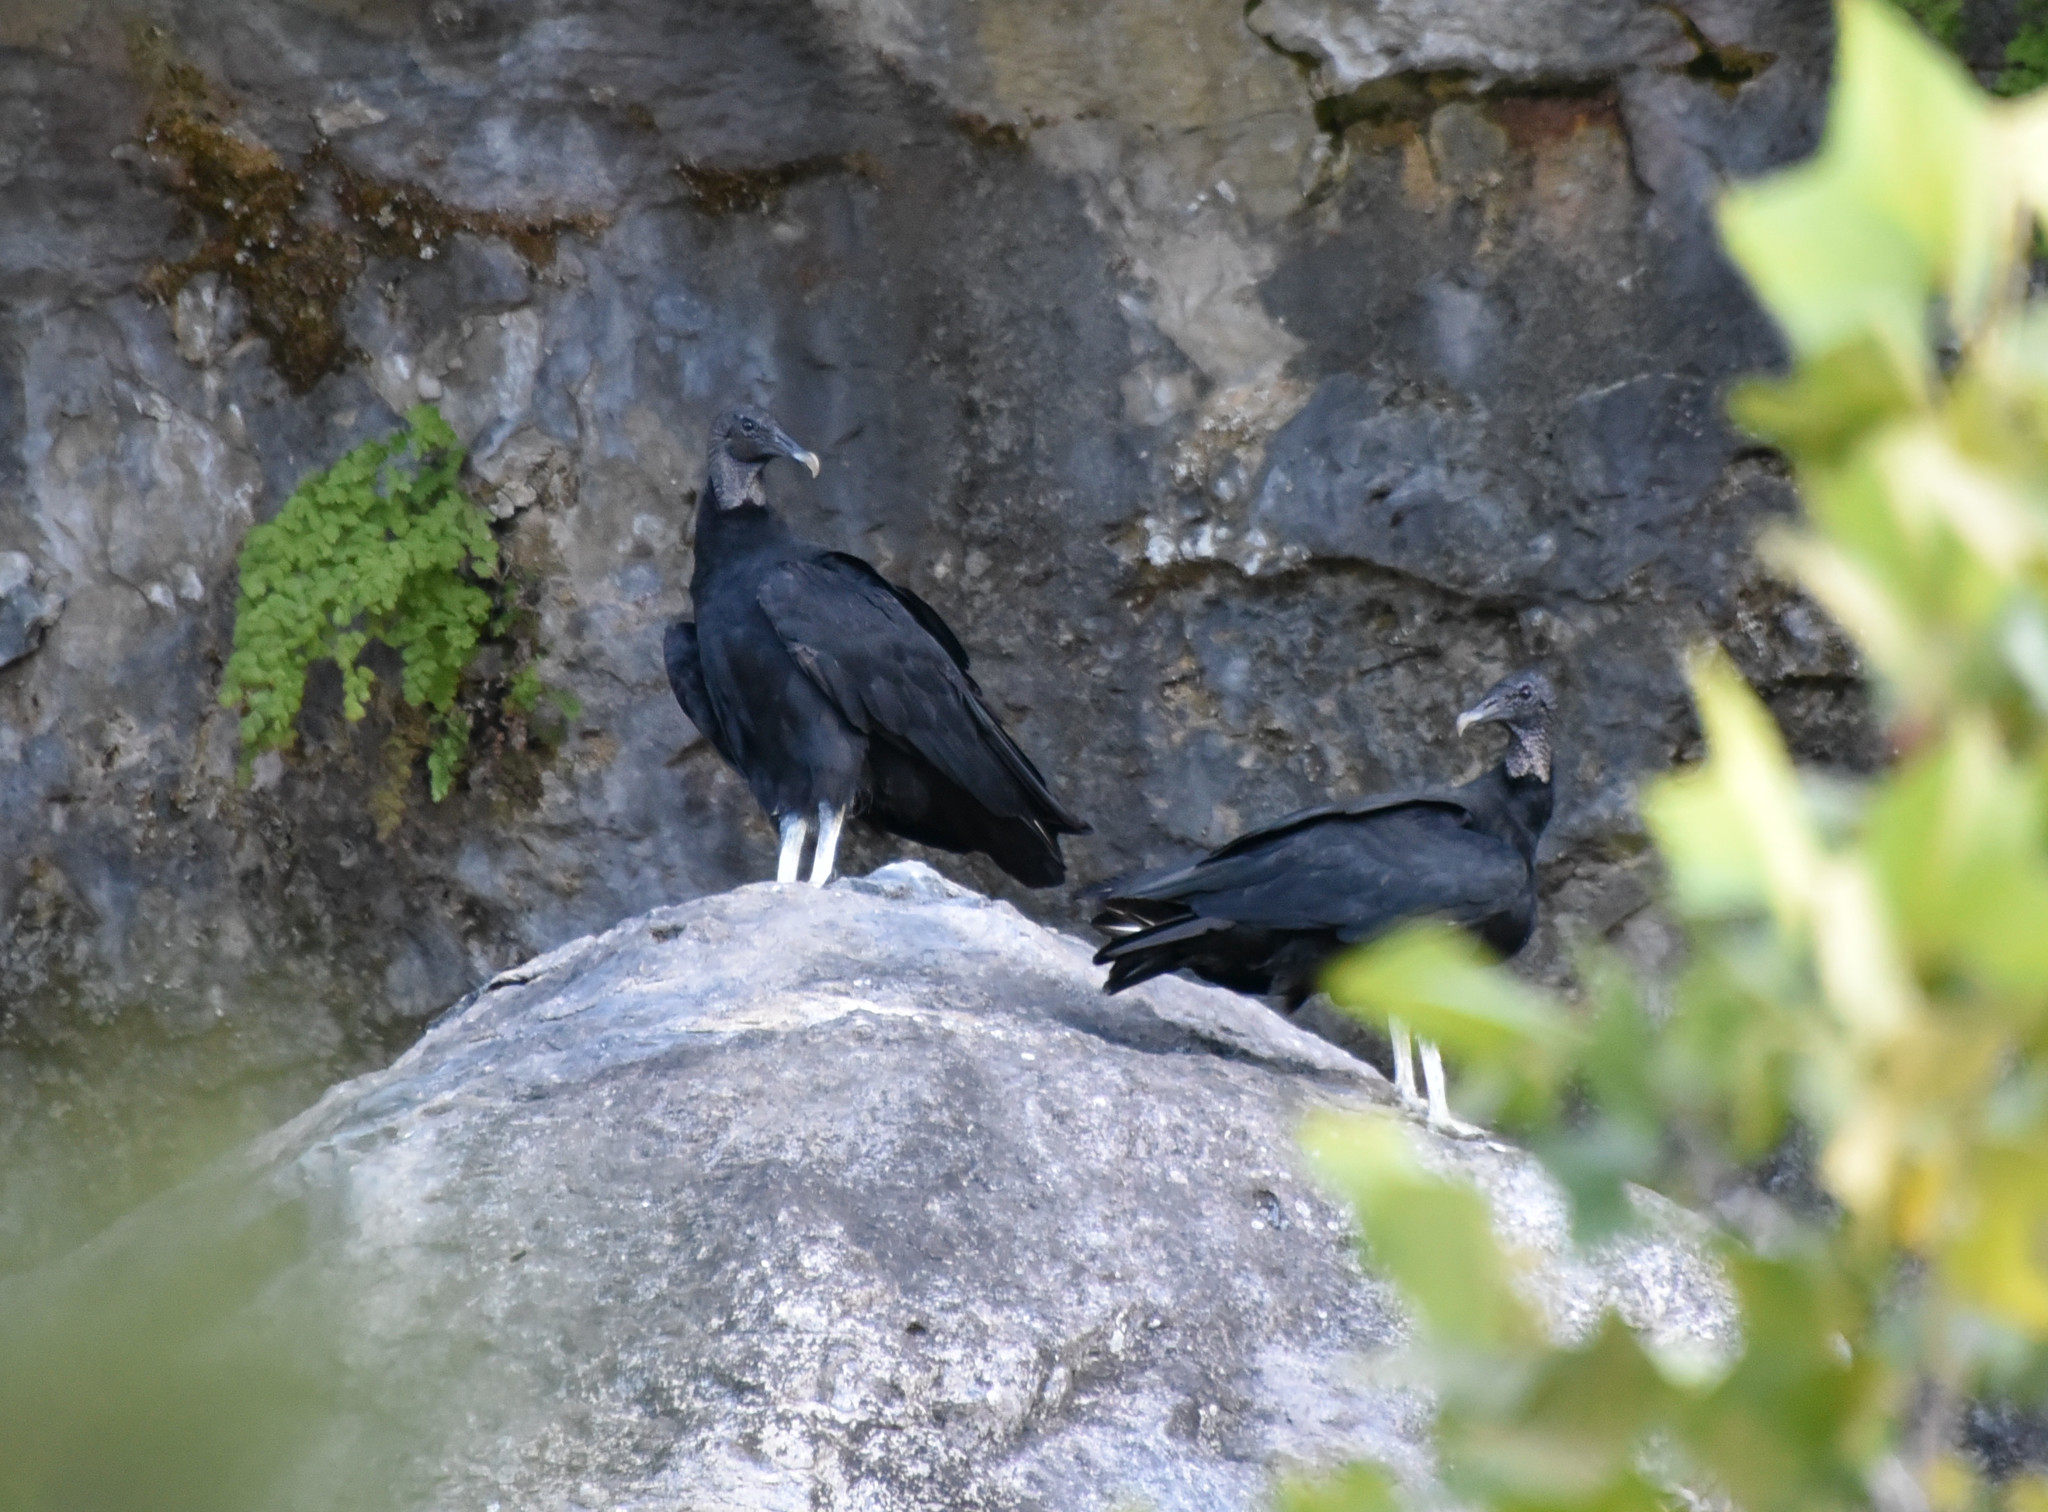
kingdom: Animalia
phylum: Chordata
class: Aves
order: Accipitriformes
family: Cathartidae
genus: Coragyps
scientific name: Coragyps atratus
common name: Black vulture
